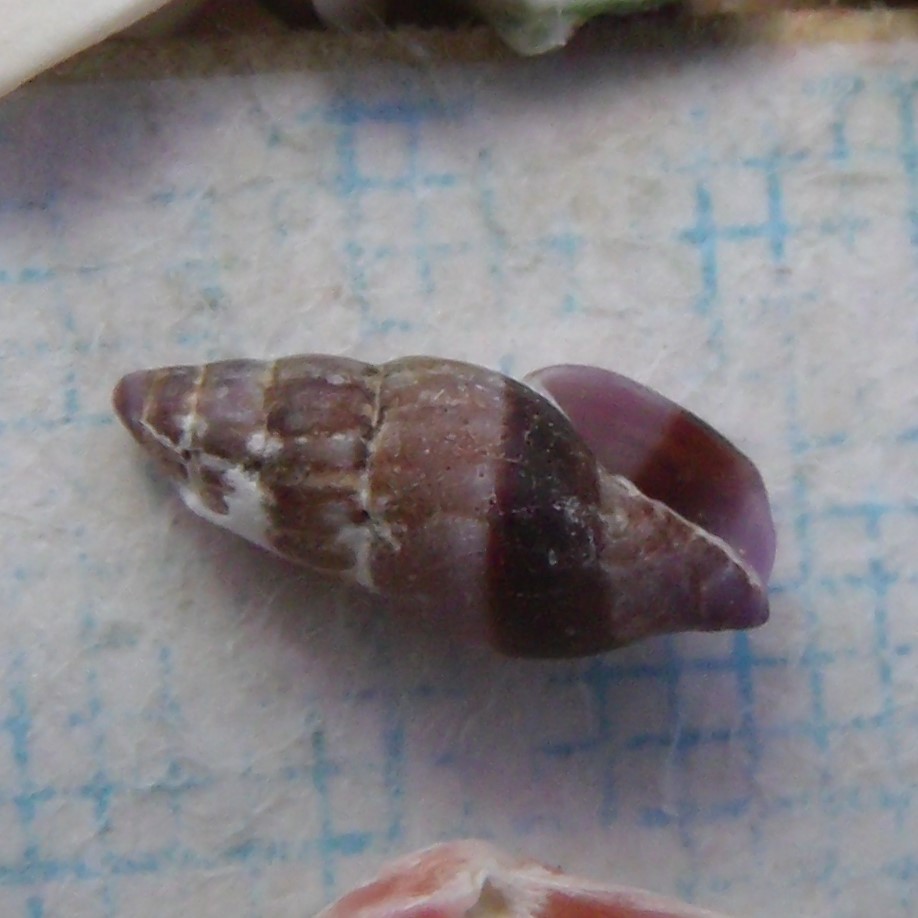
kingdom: Animalia
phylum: Mollusca
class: Gastropoda
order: Neogastropoda
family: Costellariidae
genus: Austromitra
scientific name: Austromitra rubiginosa
